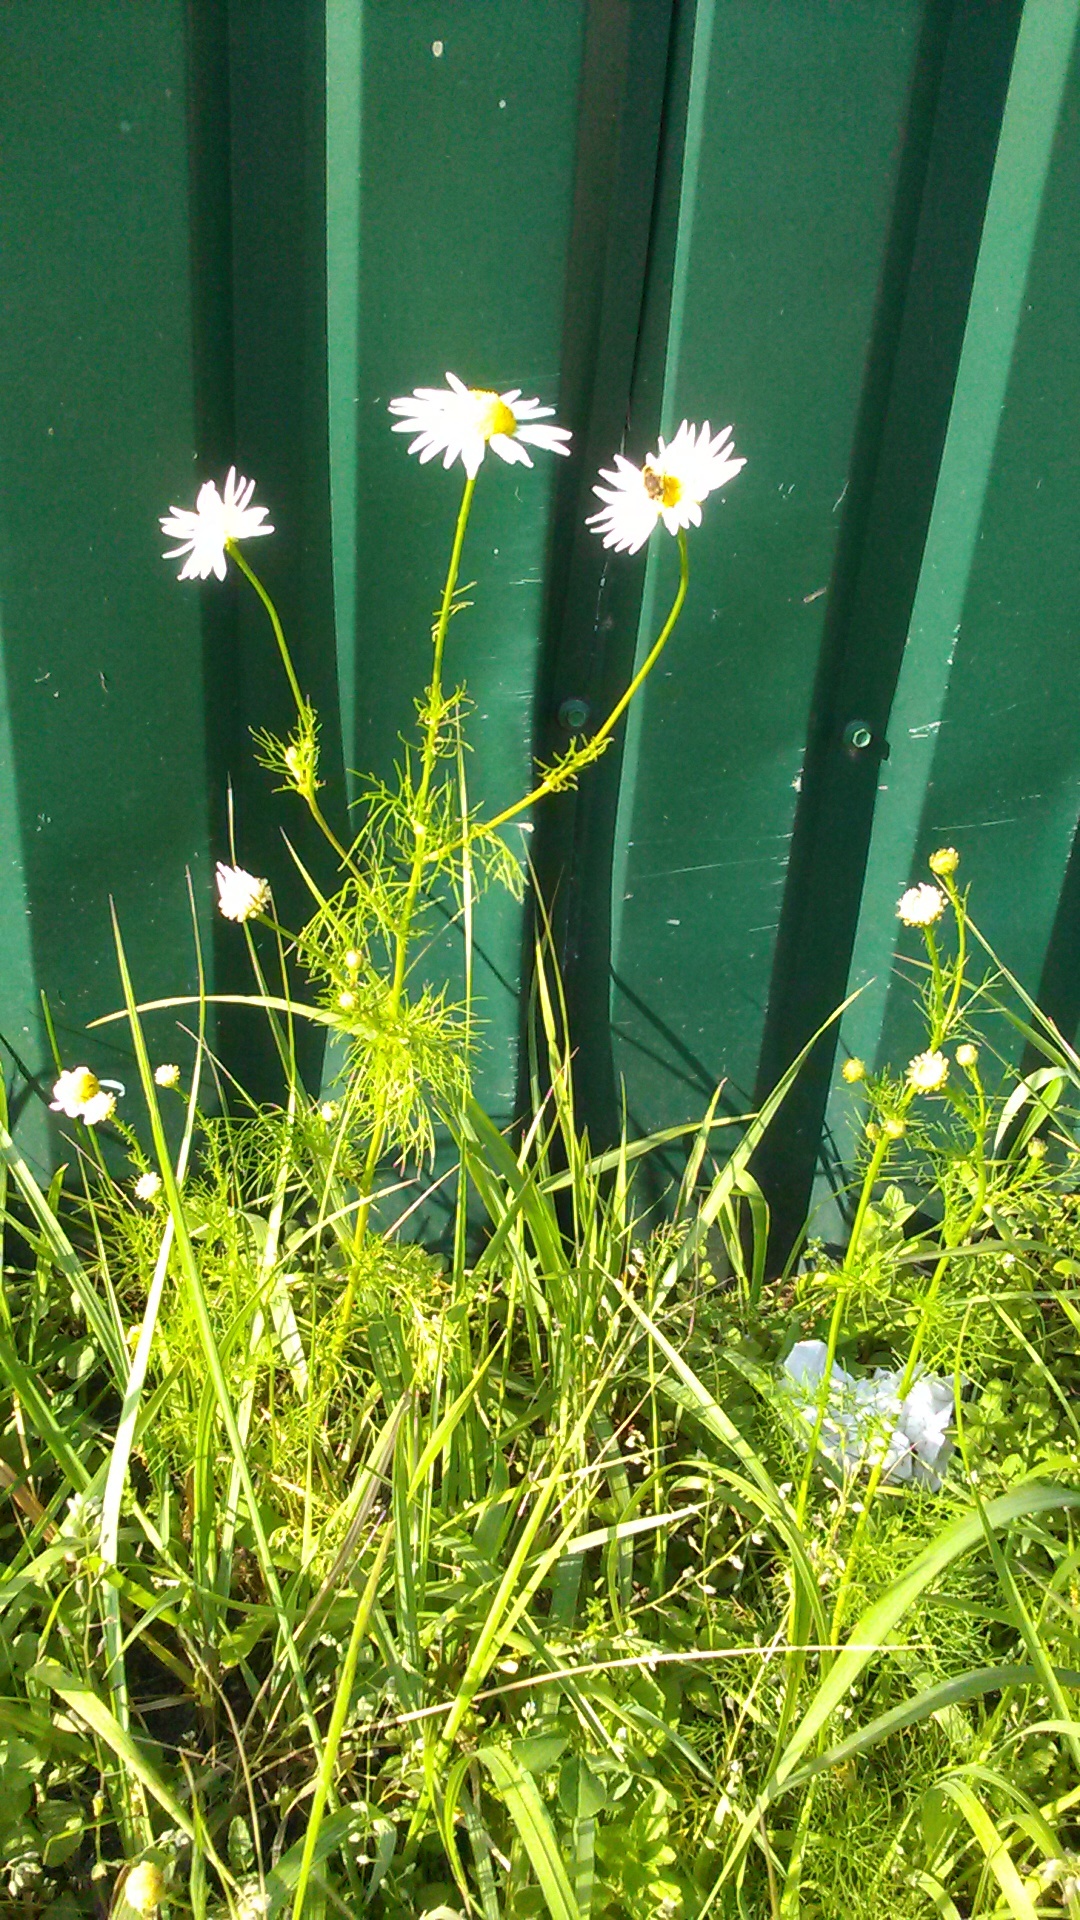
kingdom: Plantae
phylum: Tracheophyta
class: Magnoliopsida
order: Asterales
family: Asteraceae
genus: Tripleurospermum
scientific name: Tripleurospermum inodorum
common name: Scentless mayweed
